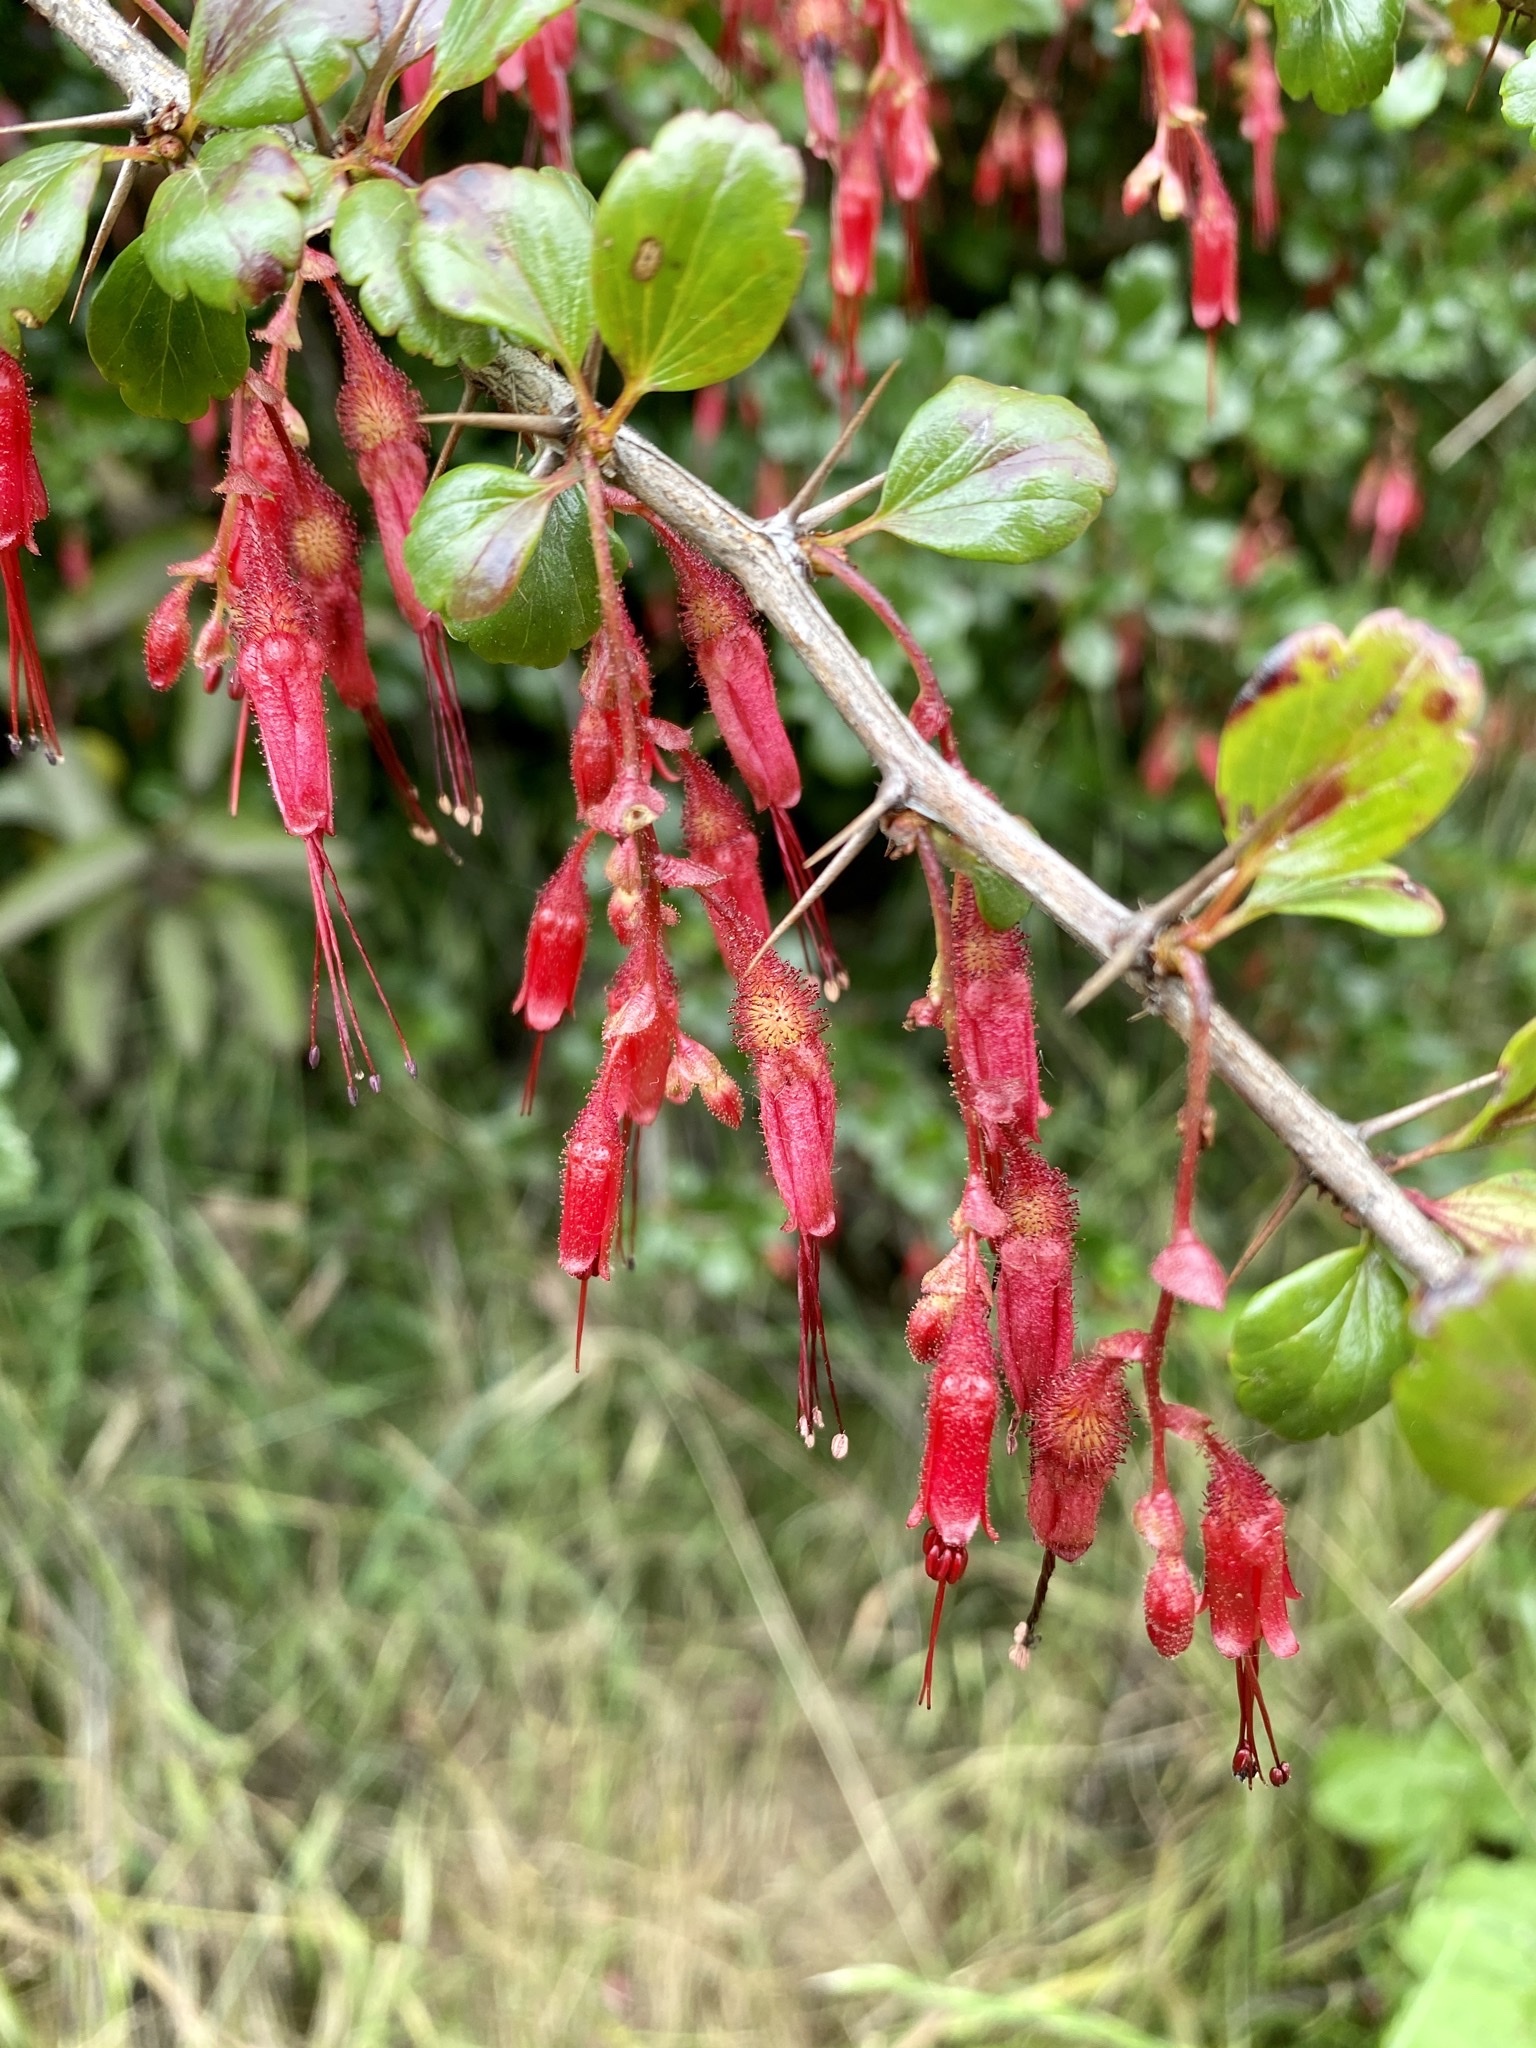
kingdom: Plantae
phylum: Tracheophyta
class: Magnoliopsida
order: Saxifragales
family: Grossulariaceae
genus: Ribes
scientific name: Ribes speciosum
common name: Fuchsia-flower gooseberry
